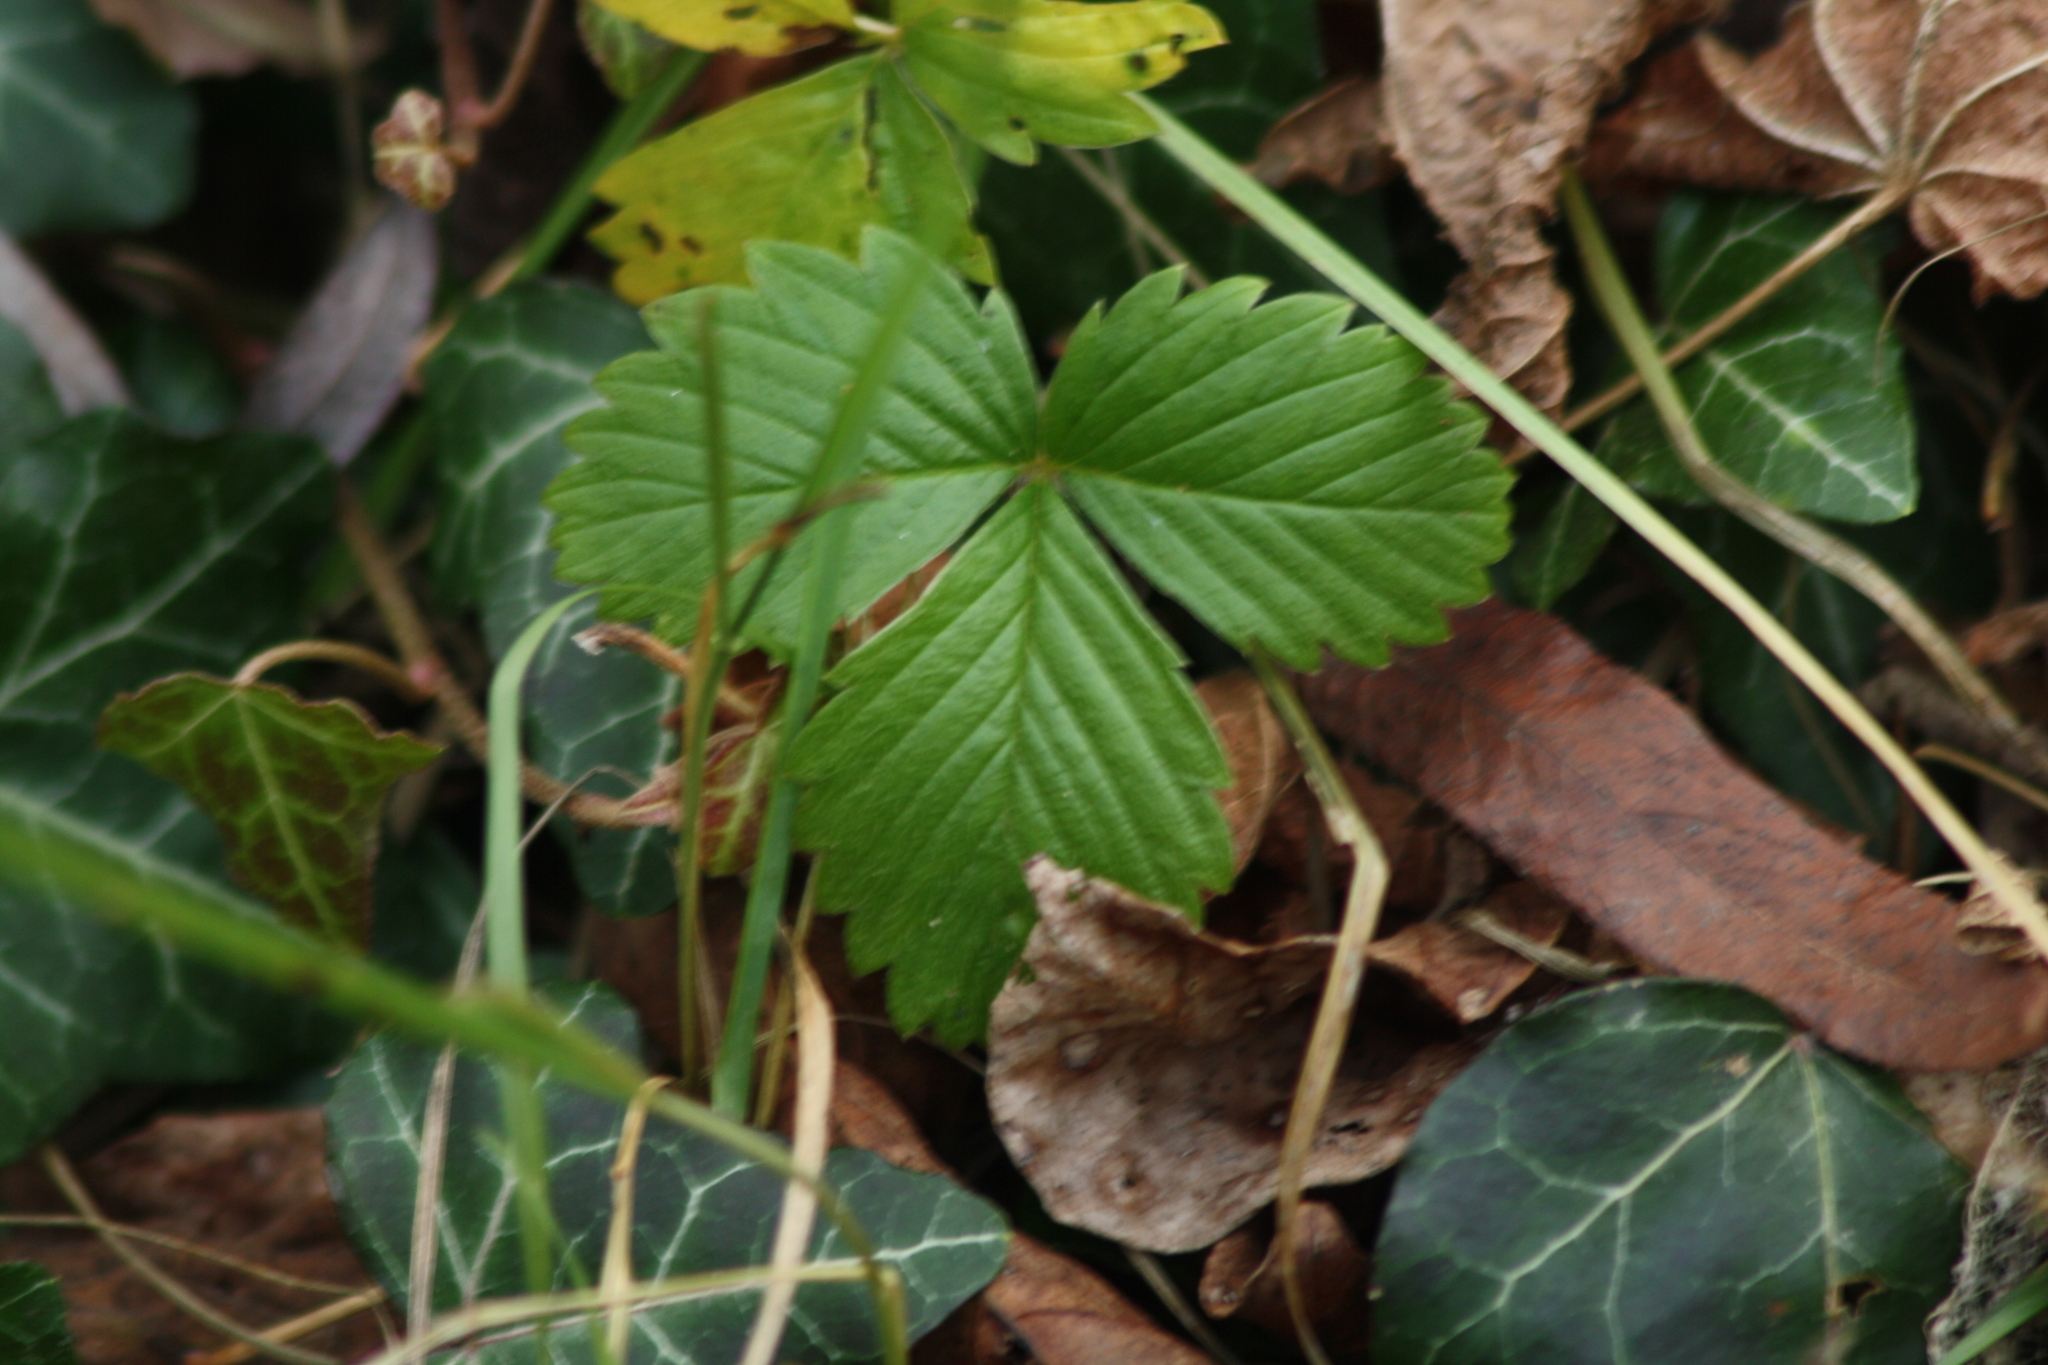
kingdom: Plantae
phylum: Tracheophyta
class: Magnoliopsida
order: Rosales
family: Rosaceae
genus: Fragaria
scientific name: Fragaria vesca
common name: Wild strawberry
